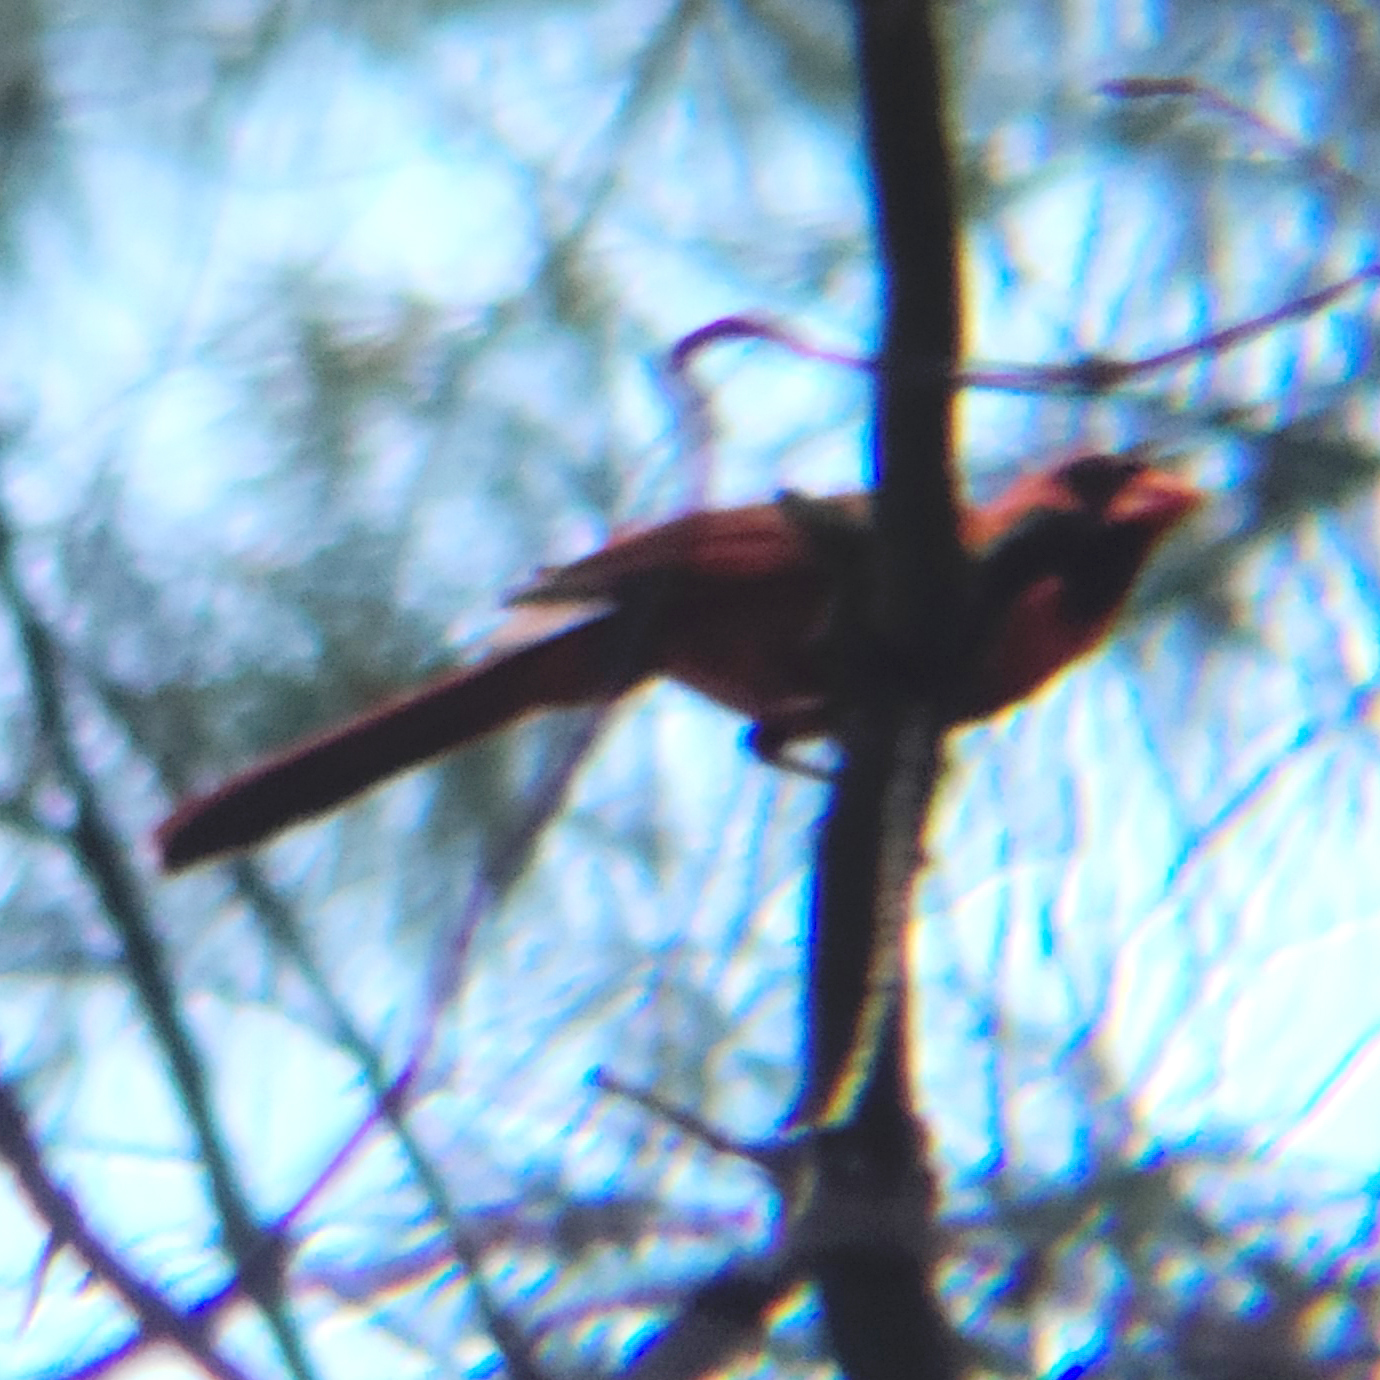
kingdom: Animalia
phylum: Chordata
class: Aves
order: Passeriformes
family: Cardinalidae
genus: Cardinalis
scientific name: Cardinalis cardinalis
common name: Northern cardinal
